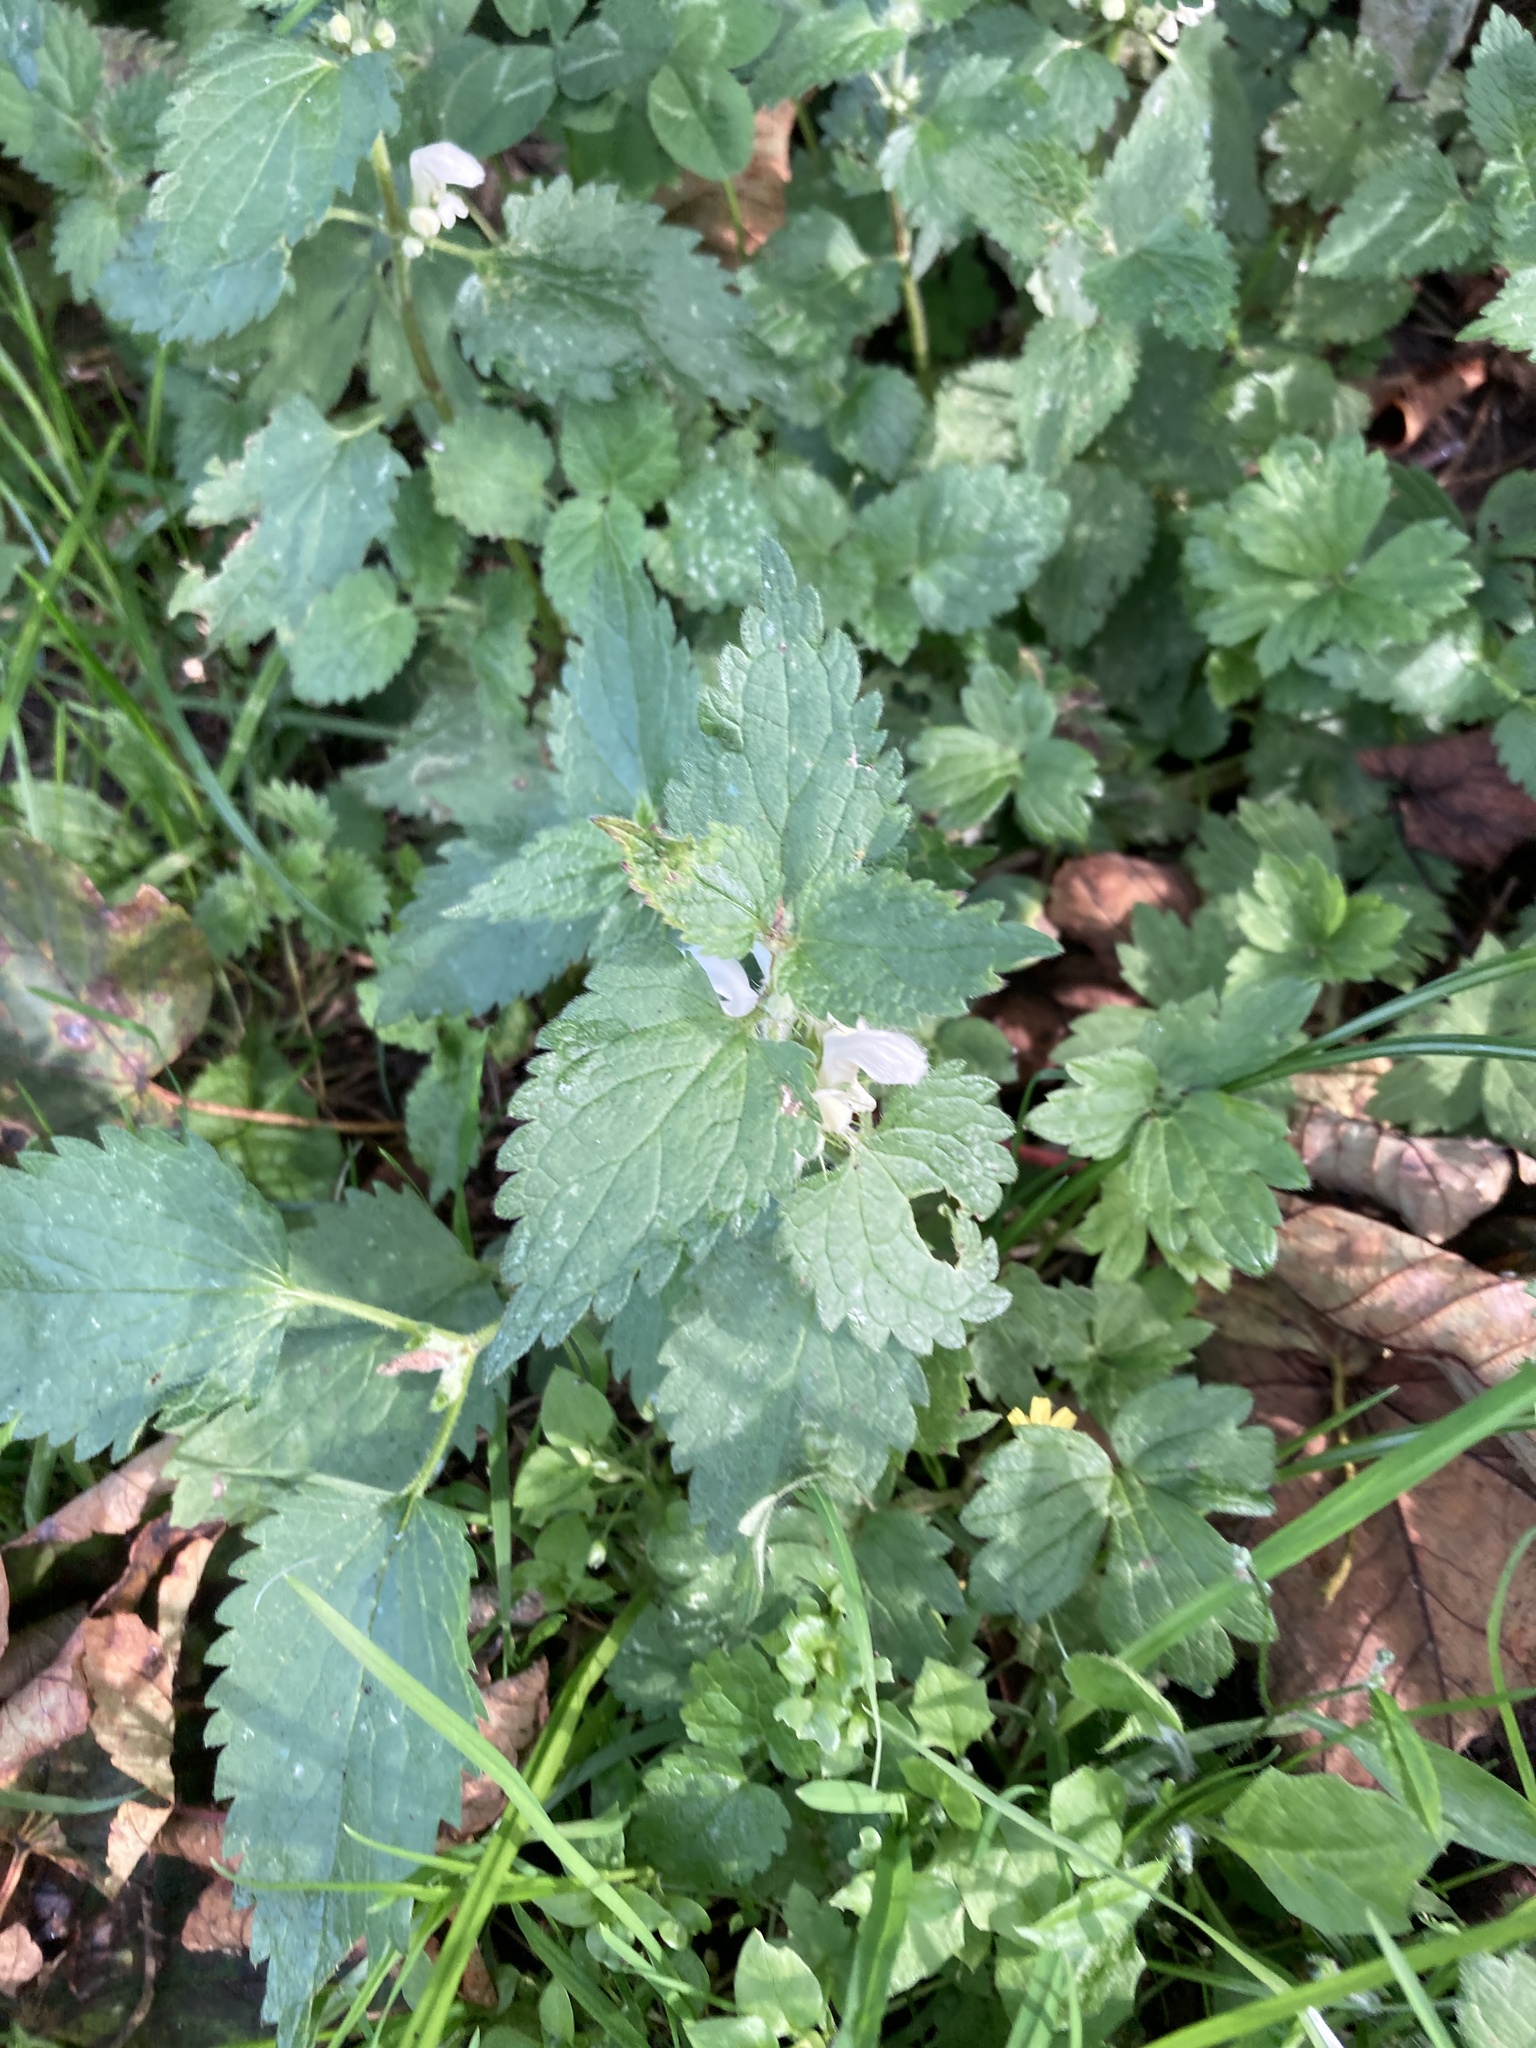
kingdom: Plantae
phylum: Tracheophyta
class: Magnoliopsida
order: Lamiales
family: Lamiaceae
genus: Lamium
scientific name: Lamium album
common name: White dead-nettle
